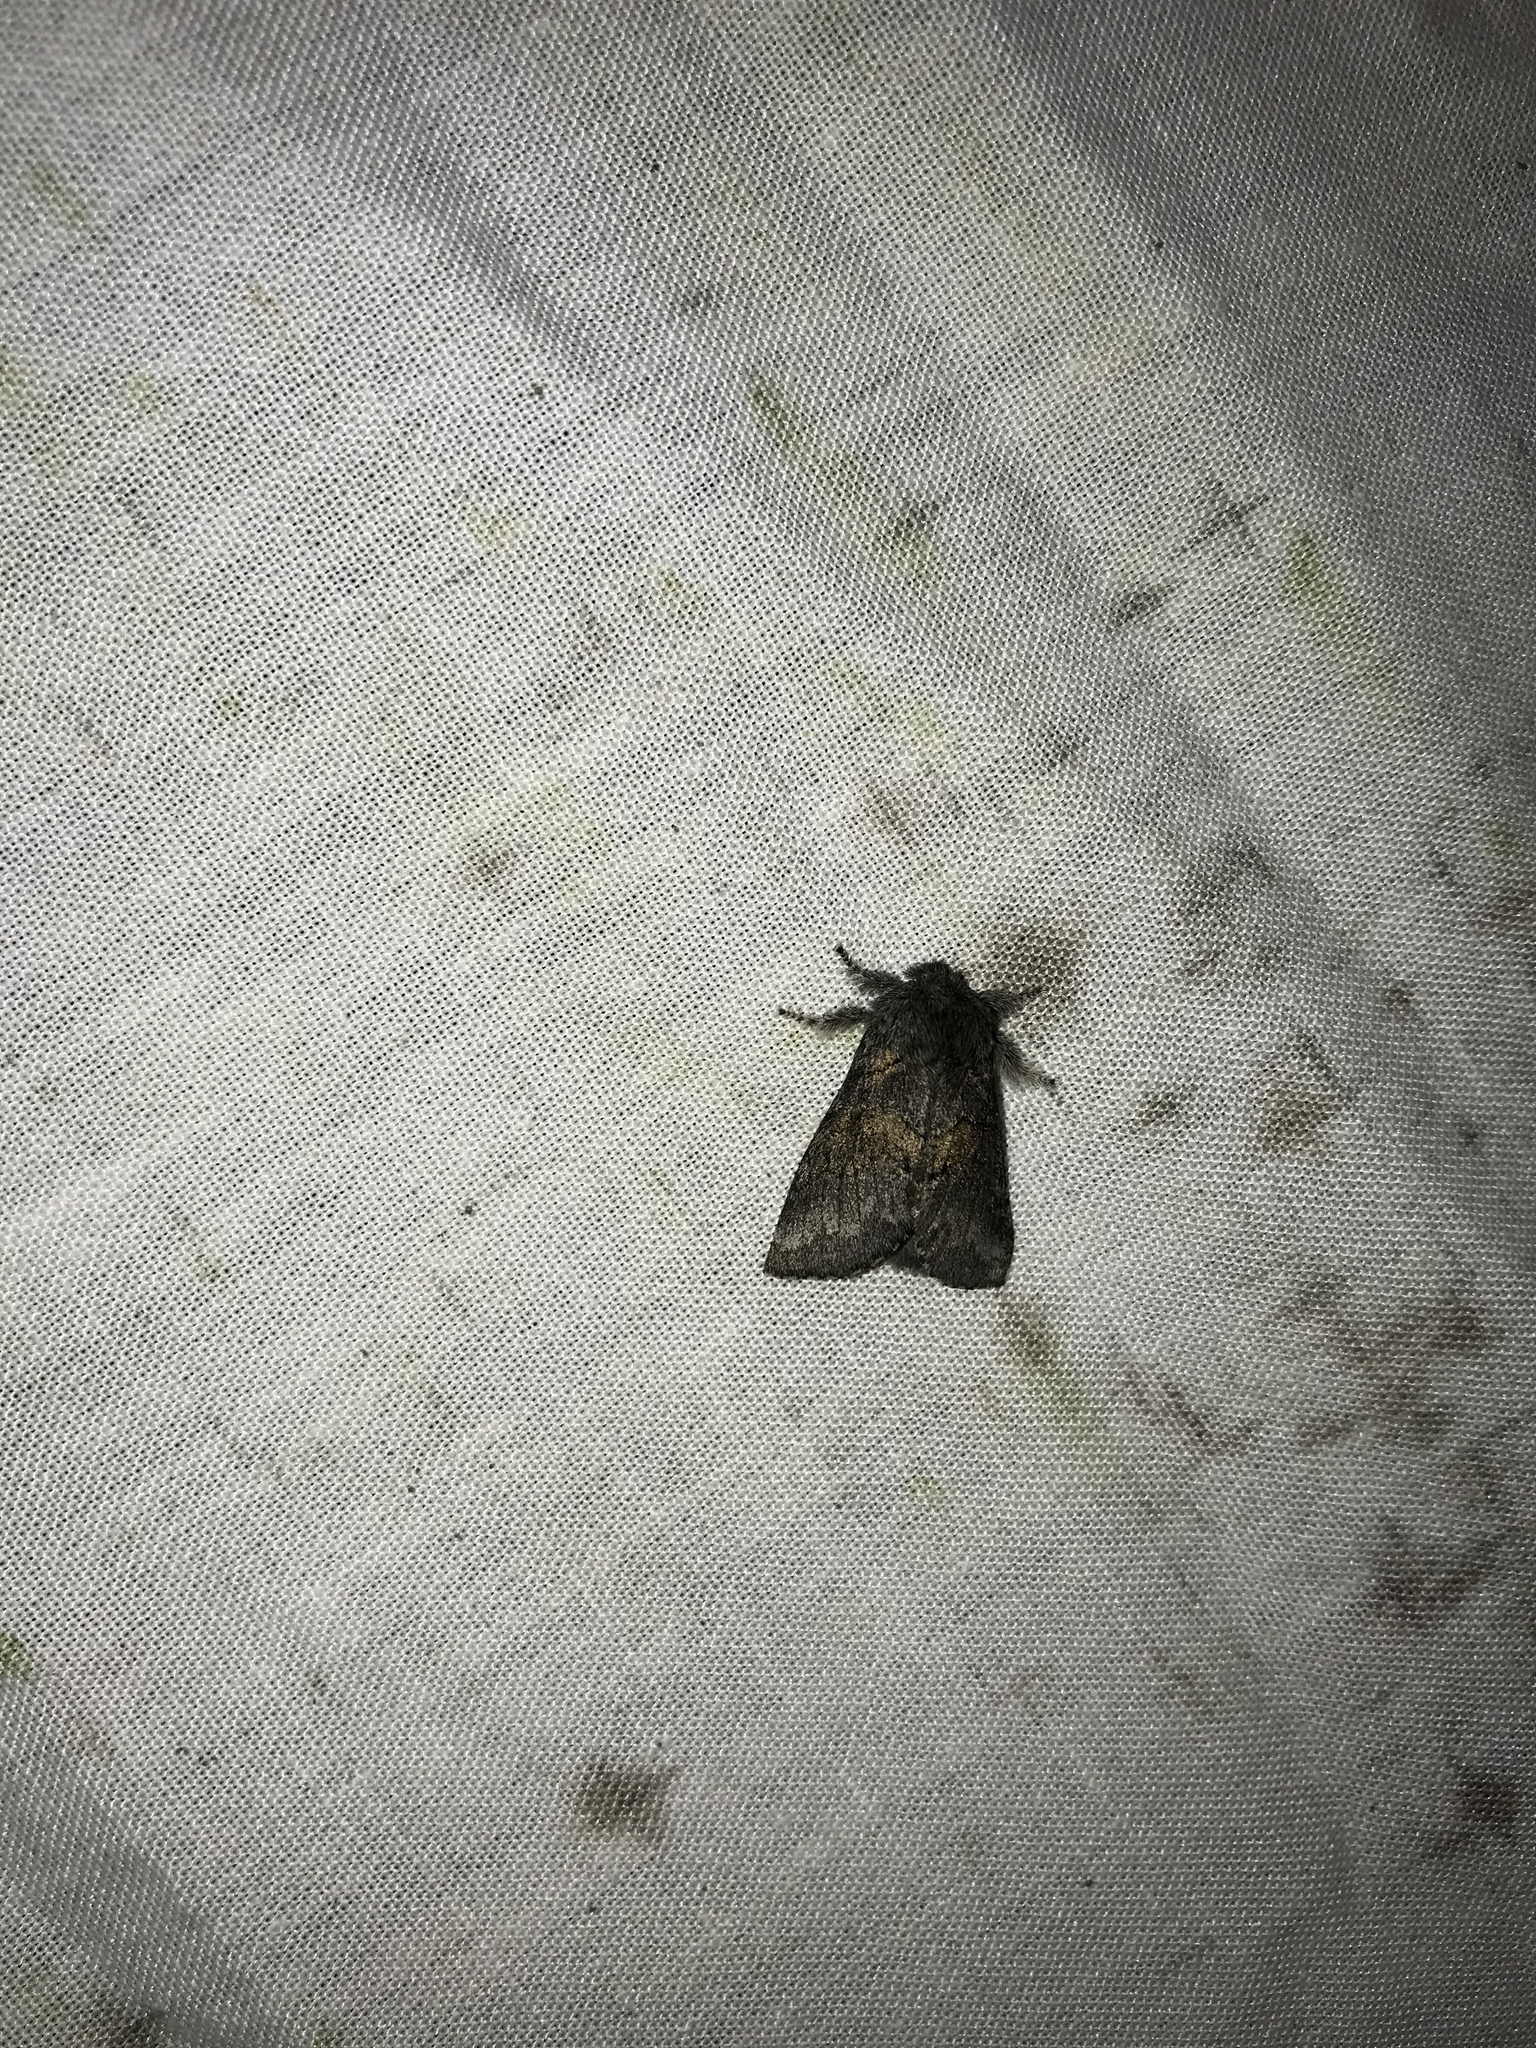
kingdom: Animalia
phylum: Arthropoda
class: Insecta
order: Lepidoptera
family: Notodontidae
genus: Gluphisia
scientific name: Gluphisia septentrionis
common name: Common gluphisia
